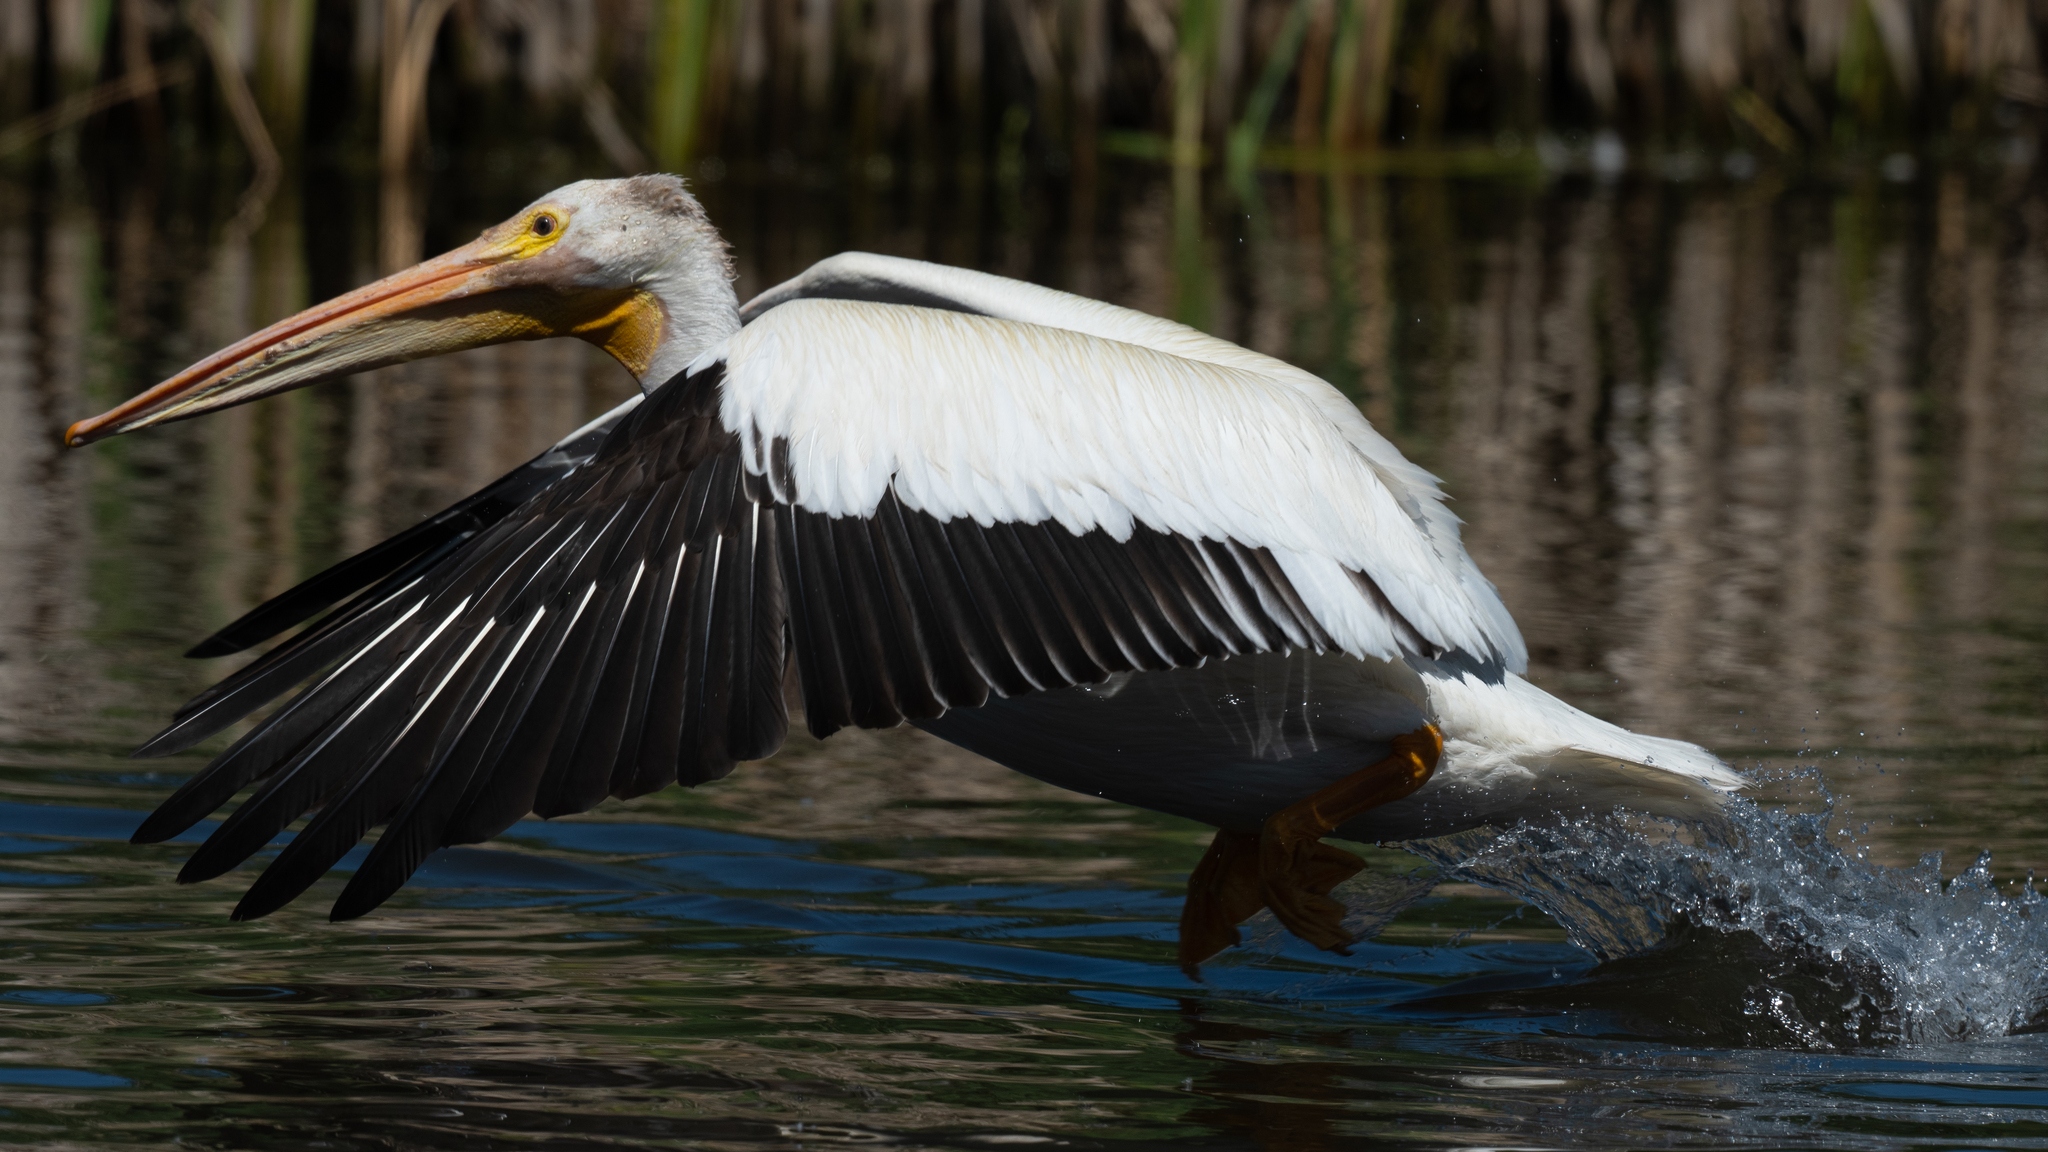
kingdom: Animalia
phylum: Chordata
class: Aves
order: Pelecaniformes
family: Pelecanidae
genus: Pelecanus
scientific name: Pelecanus erythrorhynchos
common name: American white pelican
